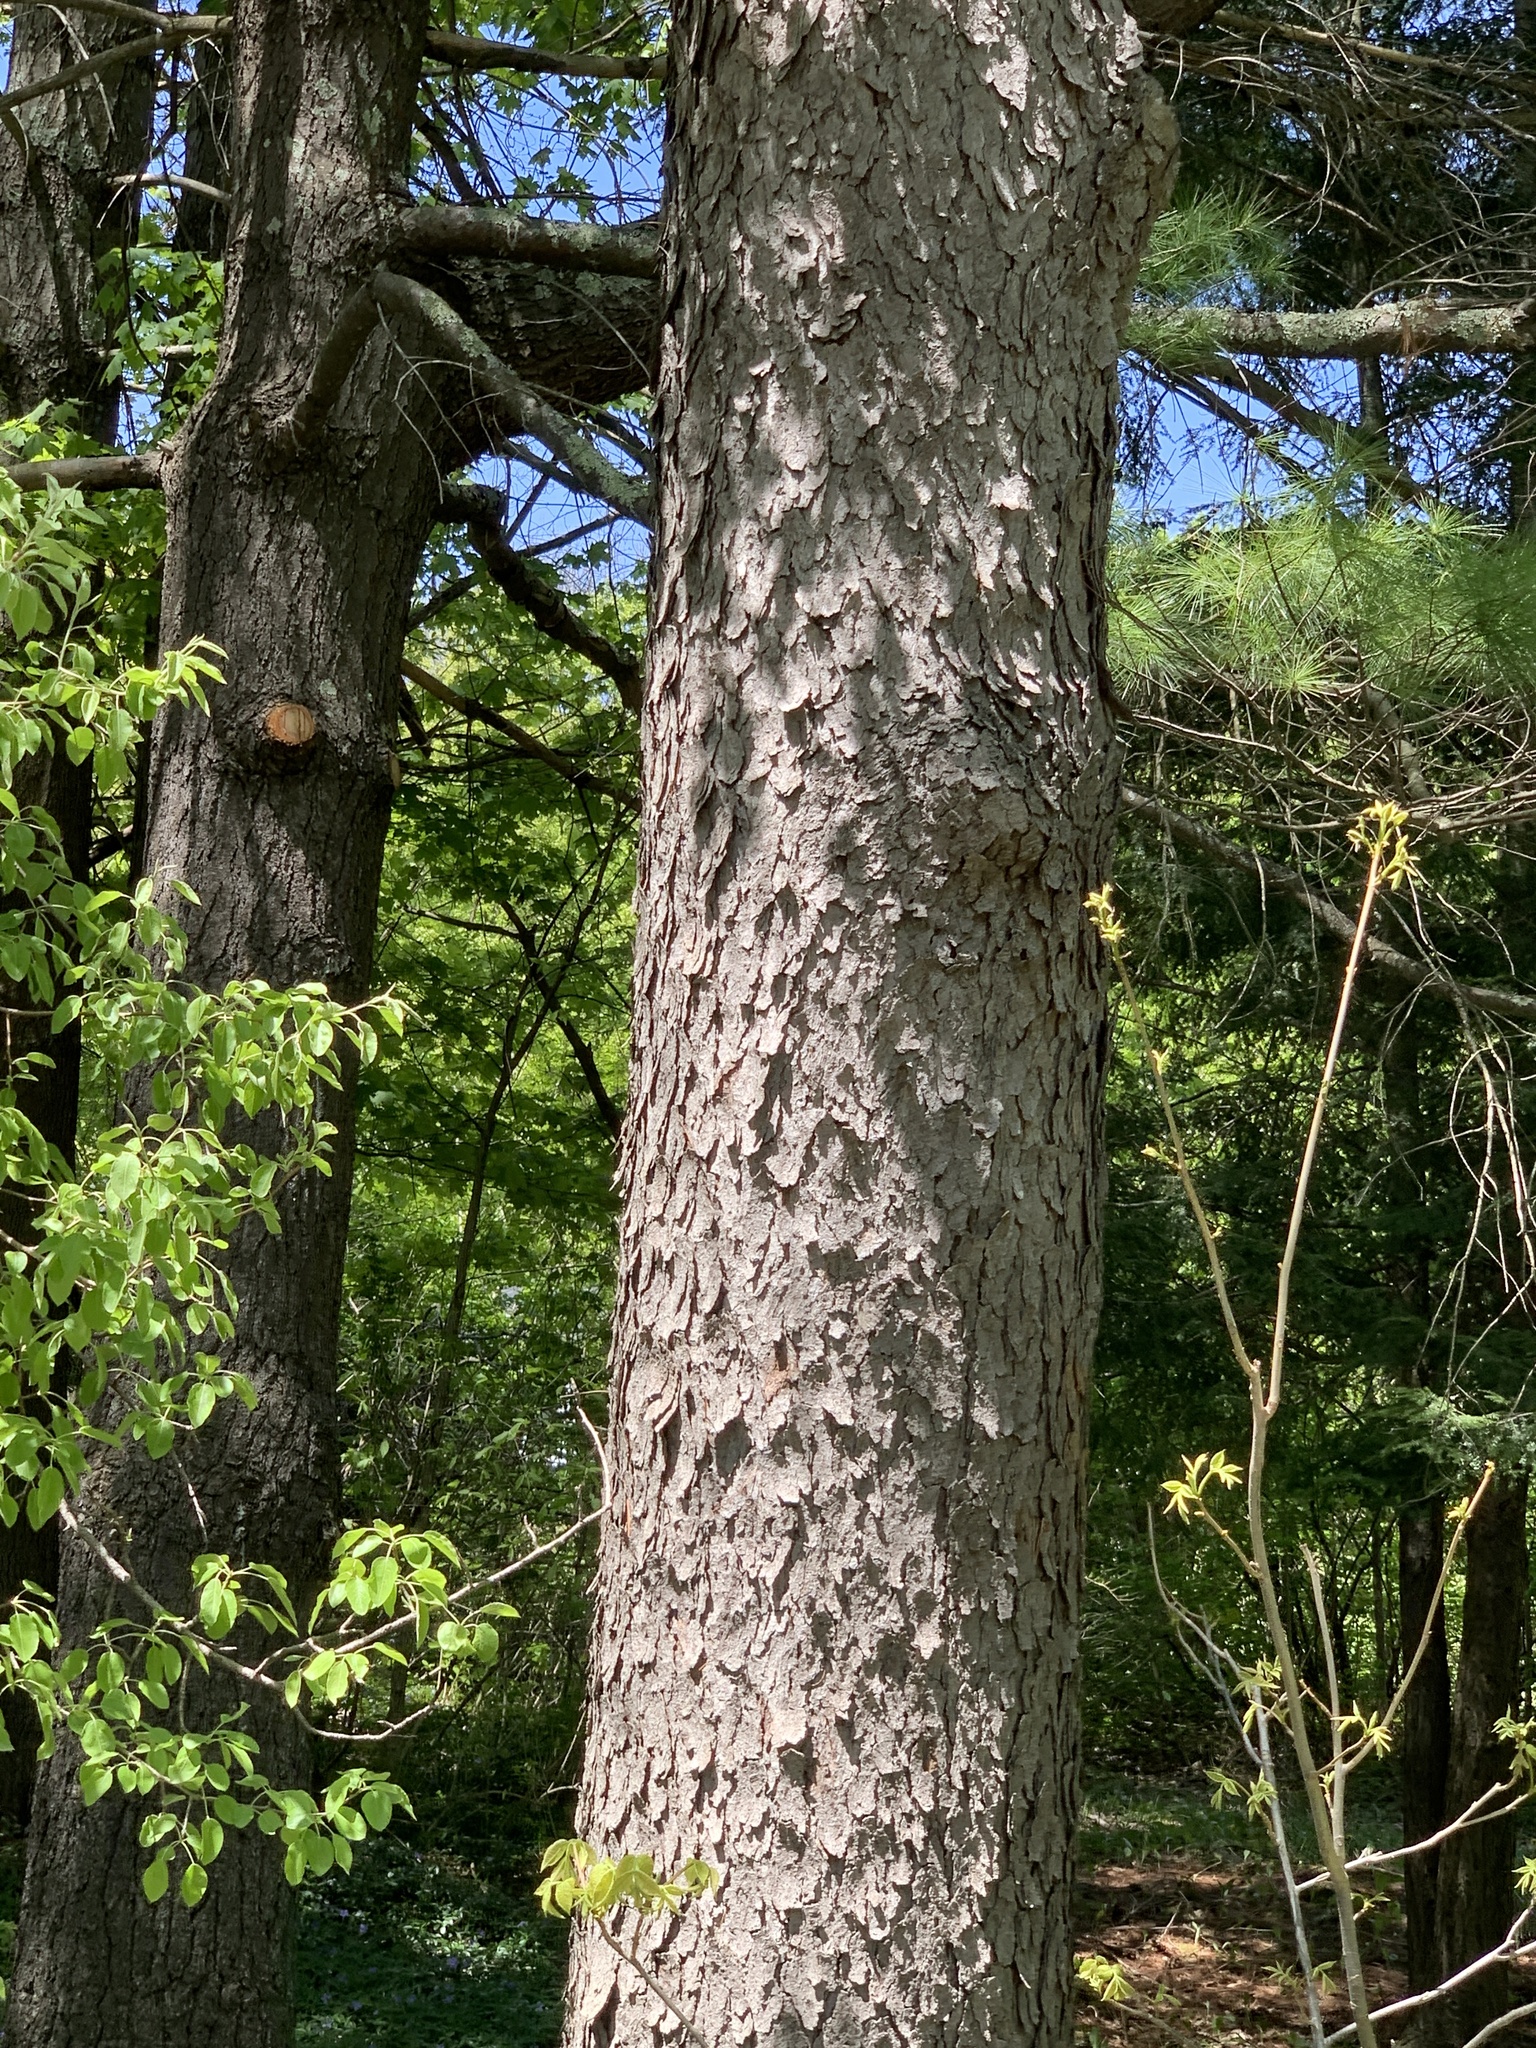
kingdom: Plantae
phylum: Tracheophyta
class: Magnoliopsida
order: Rosales
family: Rosaceae
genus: Prunus
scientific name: Prunus serotina
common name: Black cherry
